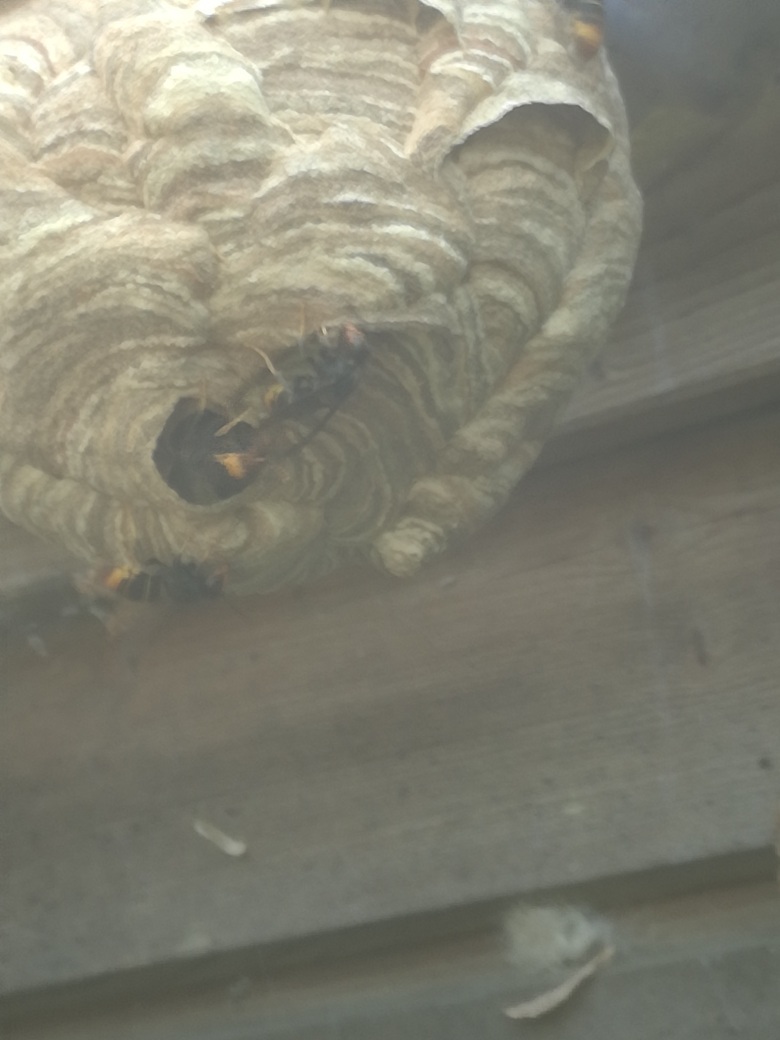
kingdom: Animalia
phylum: Arthropoda
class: Insecta
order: Hymenoptera
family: Vespidae
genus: Vespa
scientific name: Vespa velutina
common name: Asian hornet
